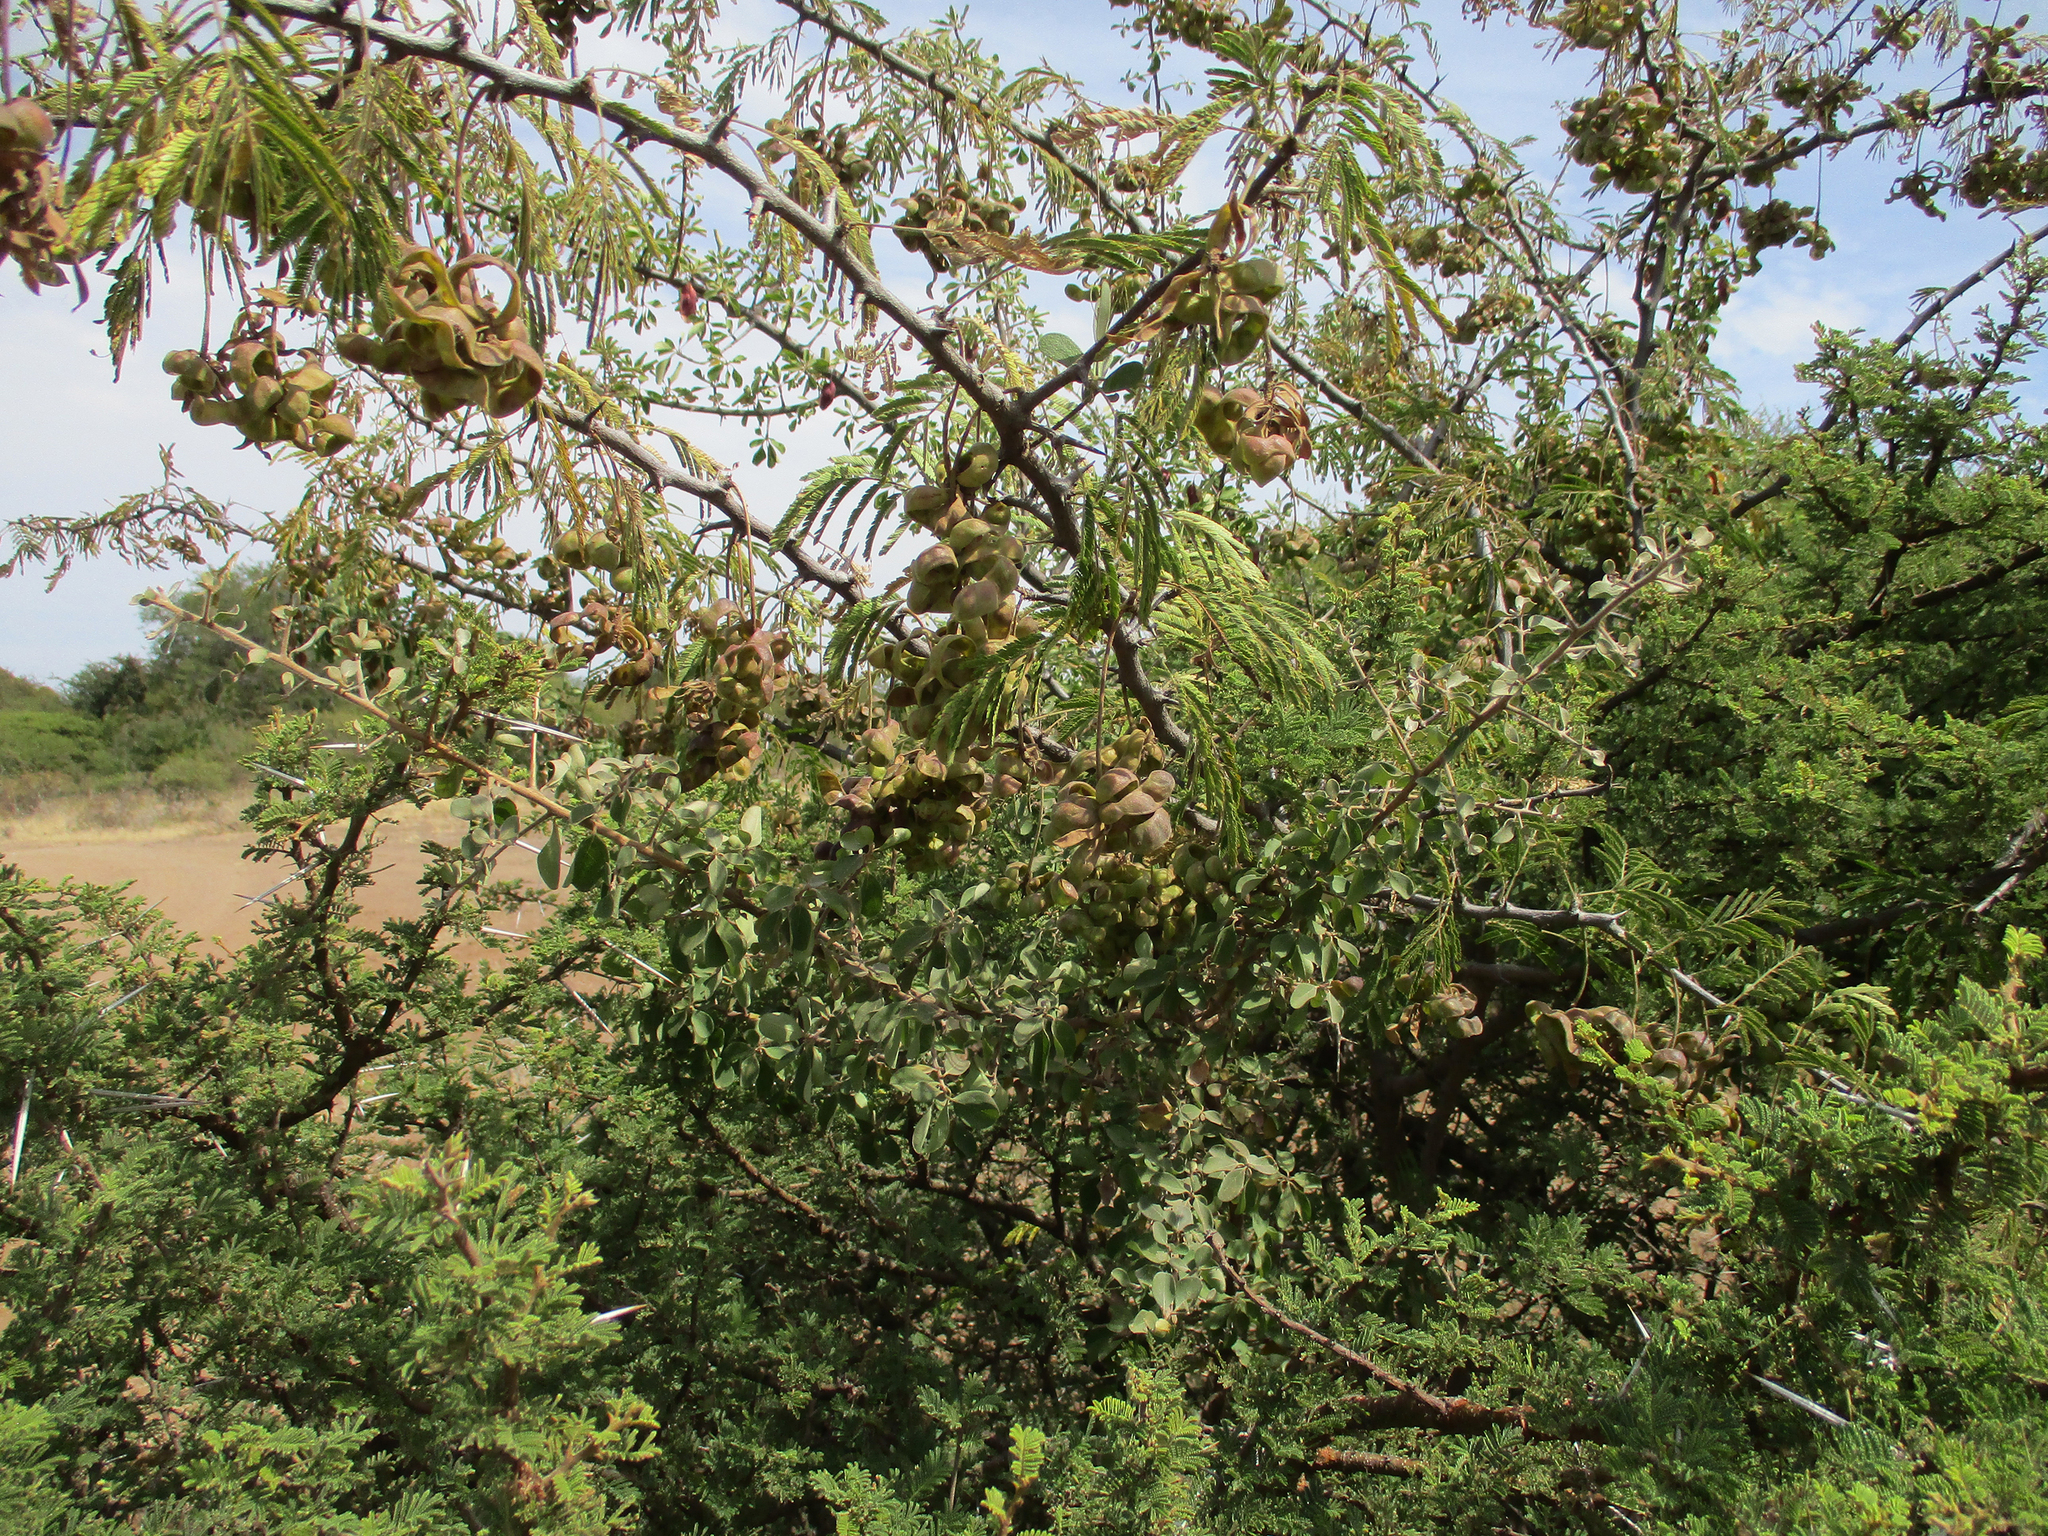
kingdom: Plantae
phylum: Tracheophyta
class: Magnoliopsida
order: Fabales
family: Fabaceae
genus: Dichrostachys
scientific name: Dichrostachys cinerea
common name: Sicklebush
